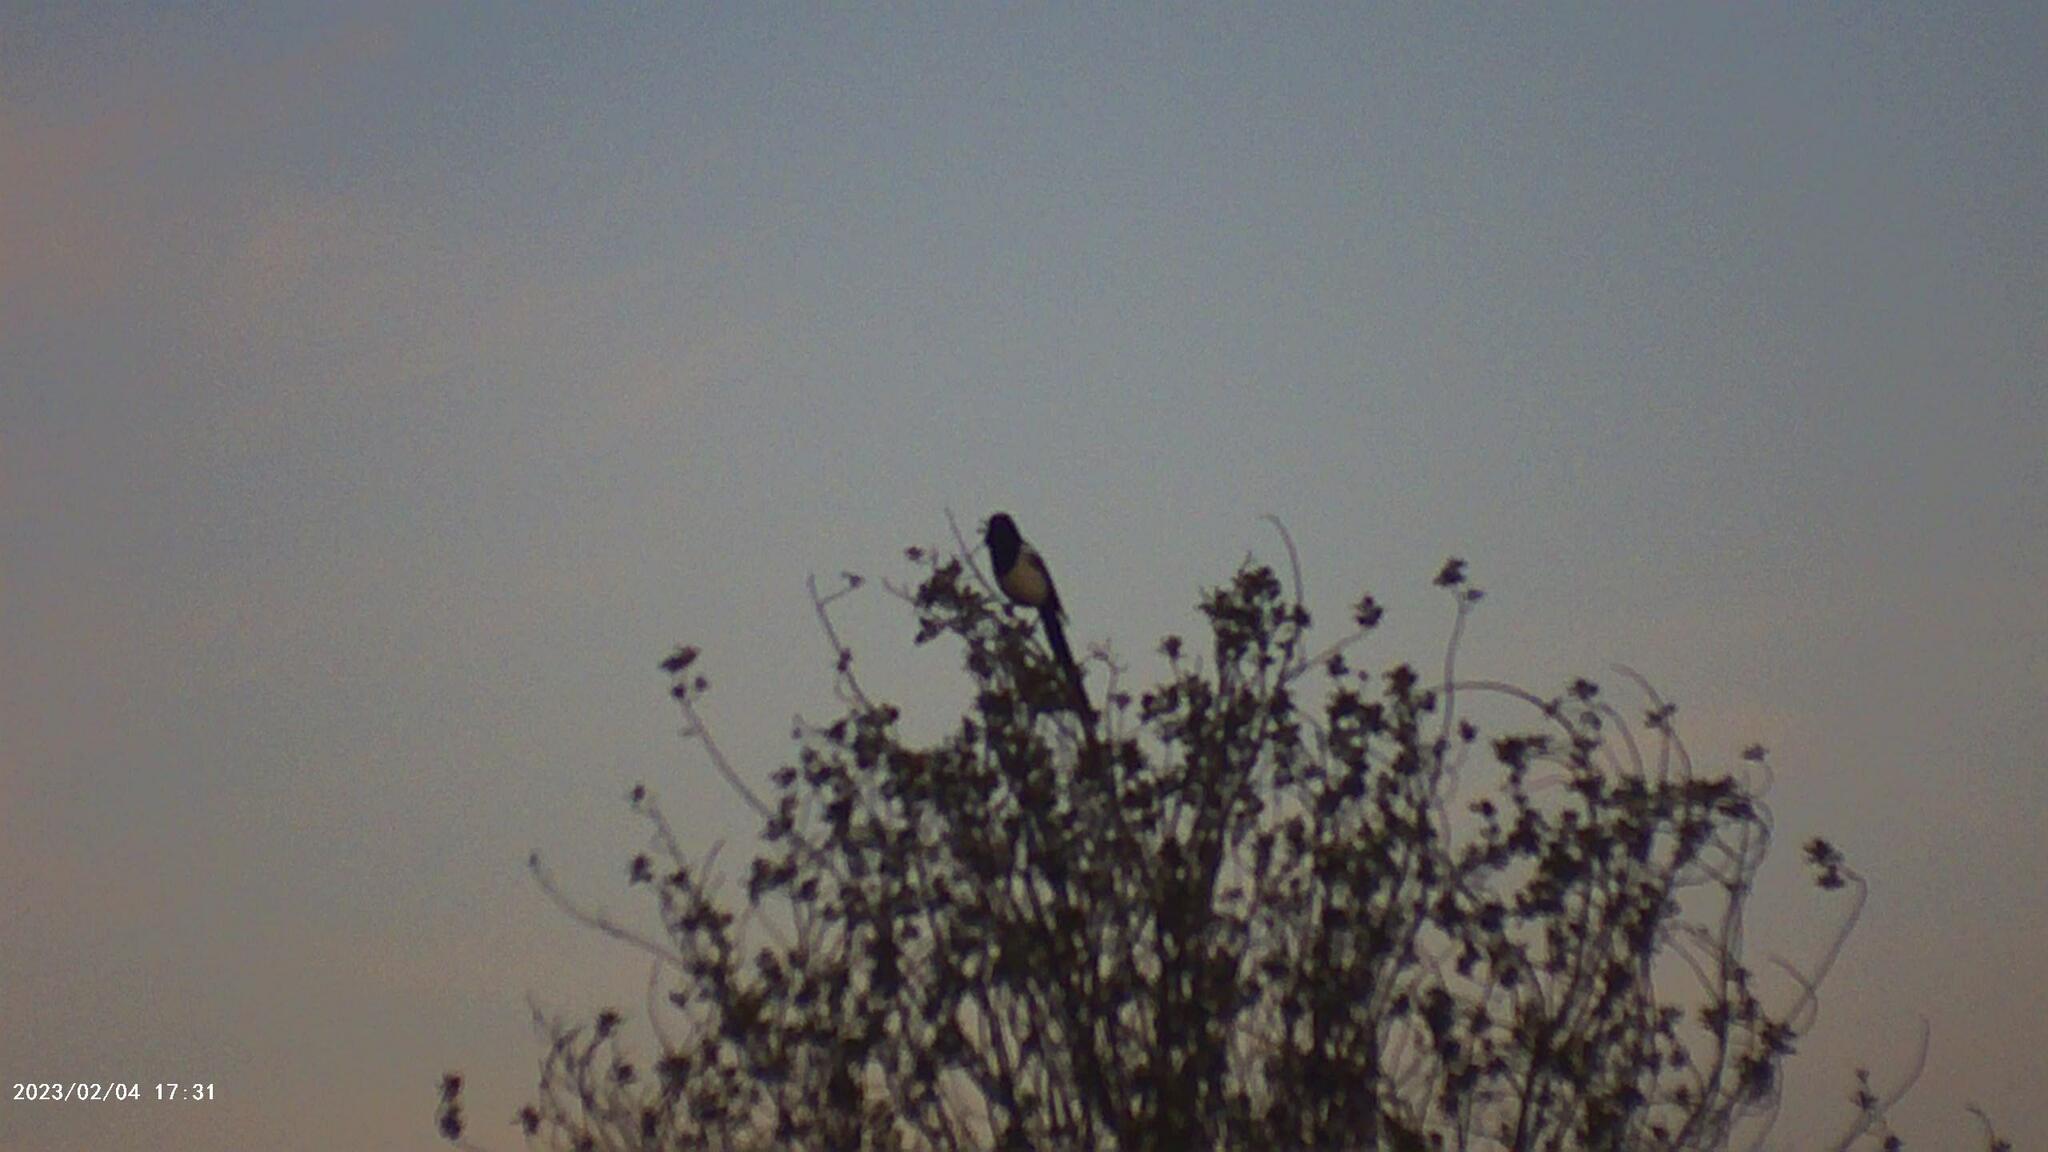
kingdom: Animalia
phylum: Chordata
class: Aves
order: Passeriformes
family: Corvidae
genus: Pica
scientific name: Pica pica
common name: Eurasian magpie
